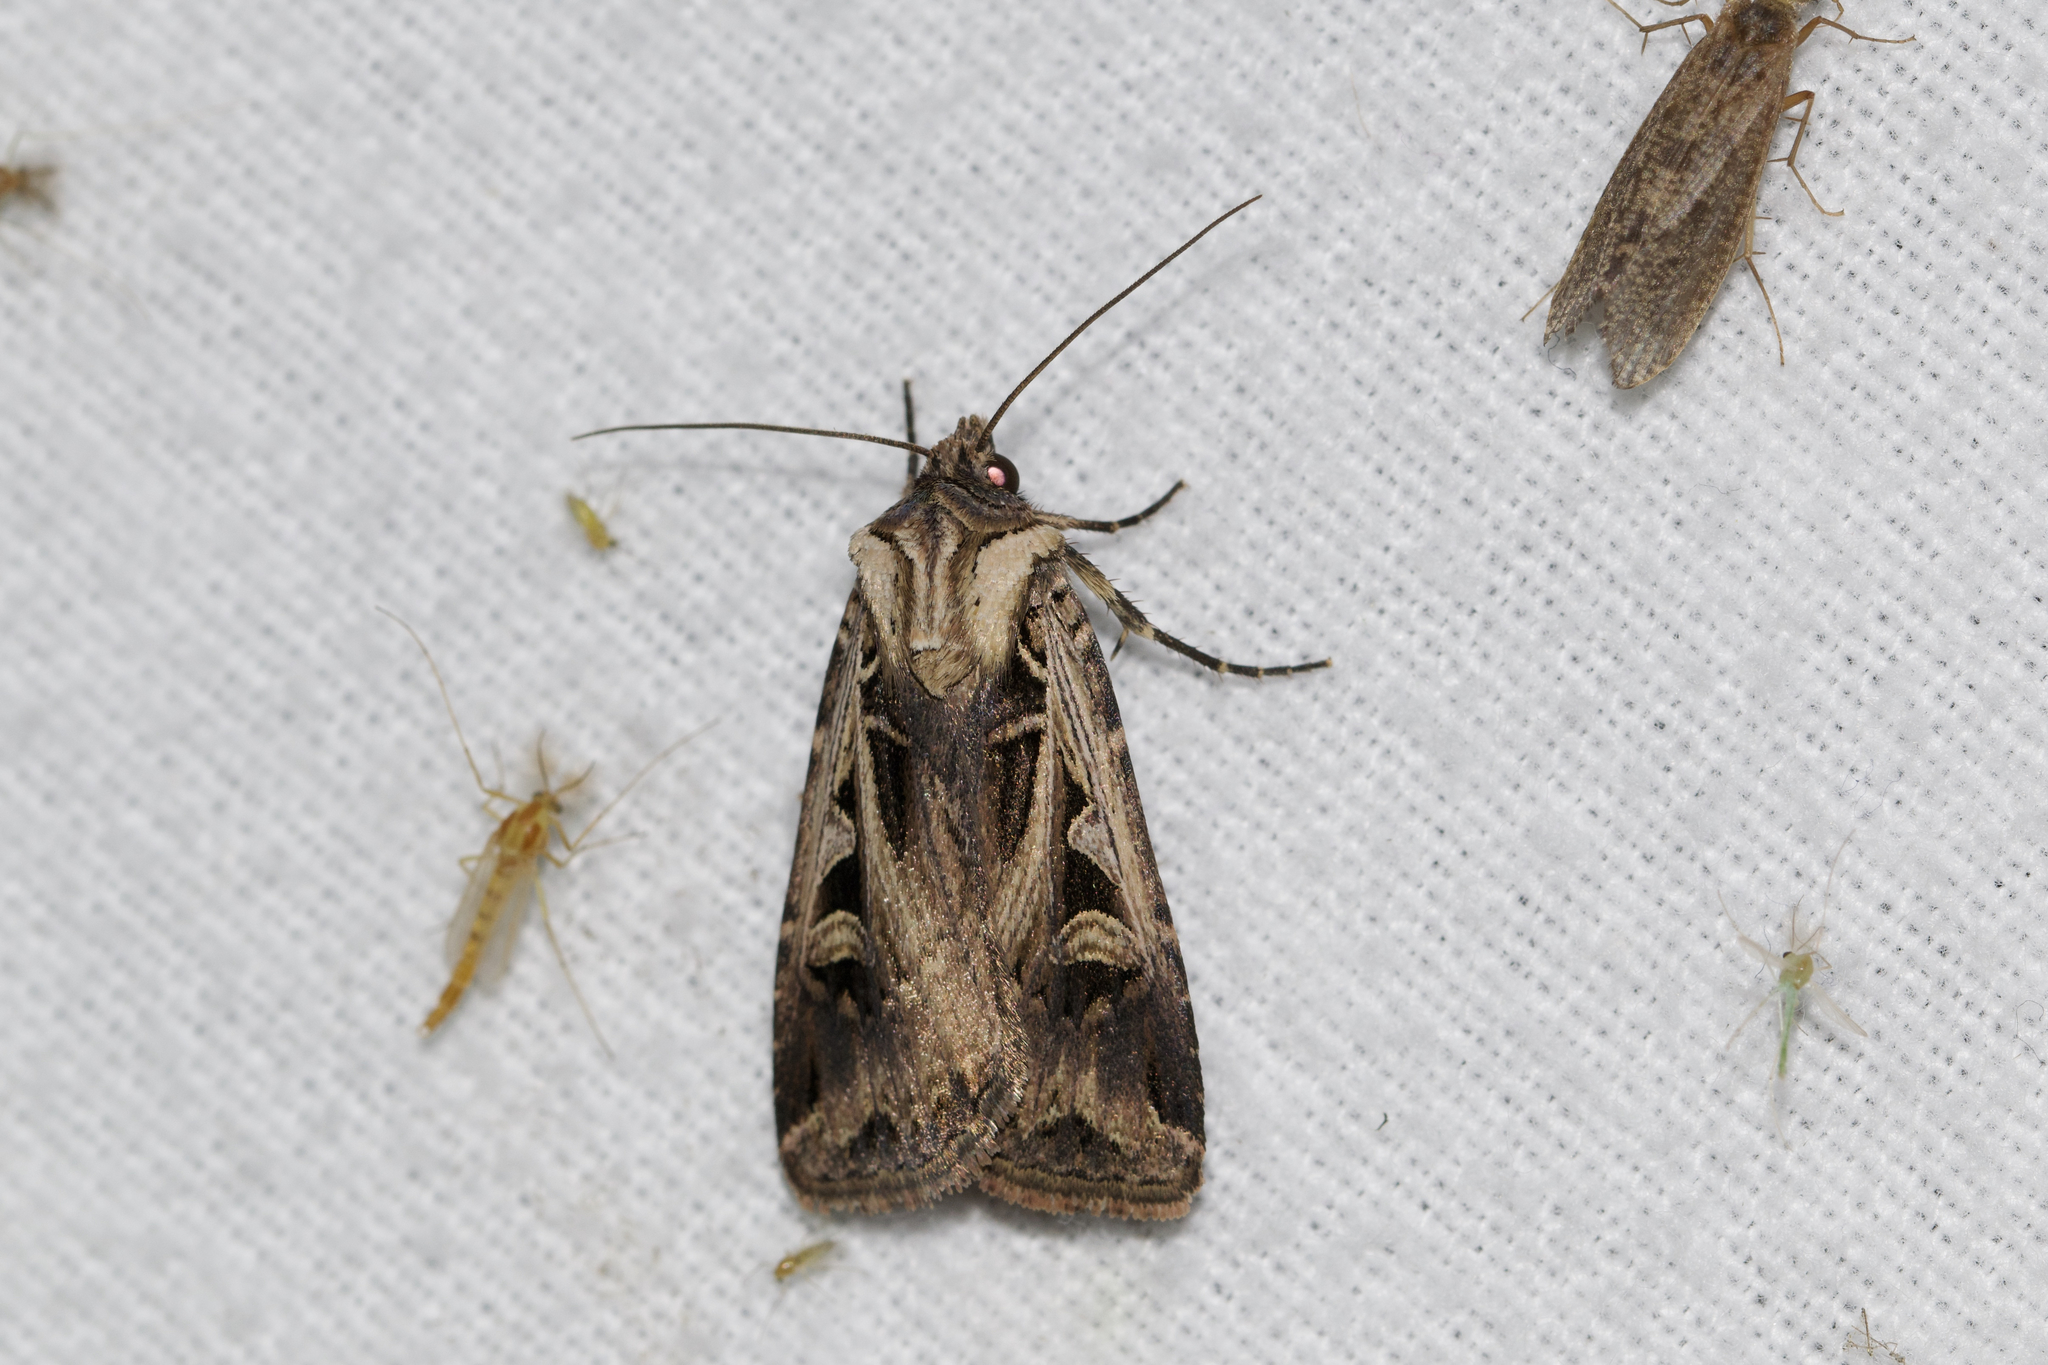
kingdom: Animalia
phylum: Arthropoda
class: Insecta
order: Lepidoptera
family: Noctuidae
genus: Feltia
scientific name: Feltia subgothica
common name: Gothic dart
